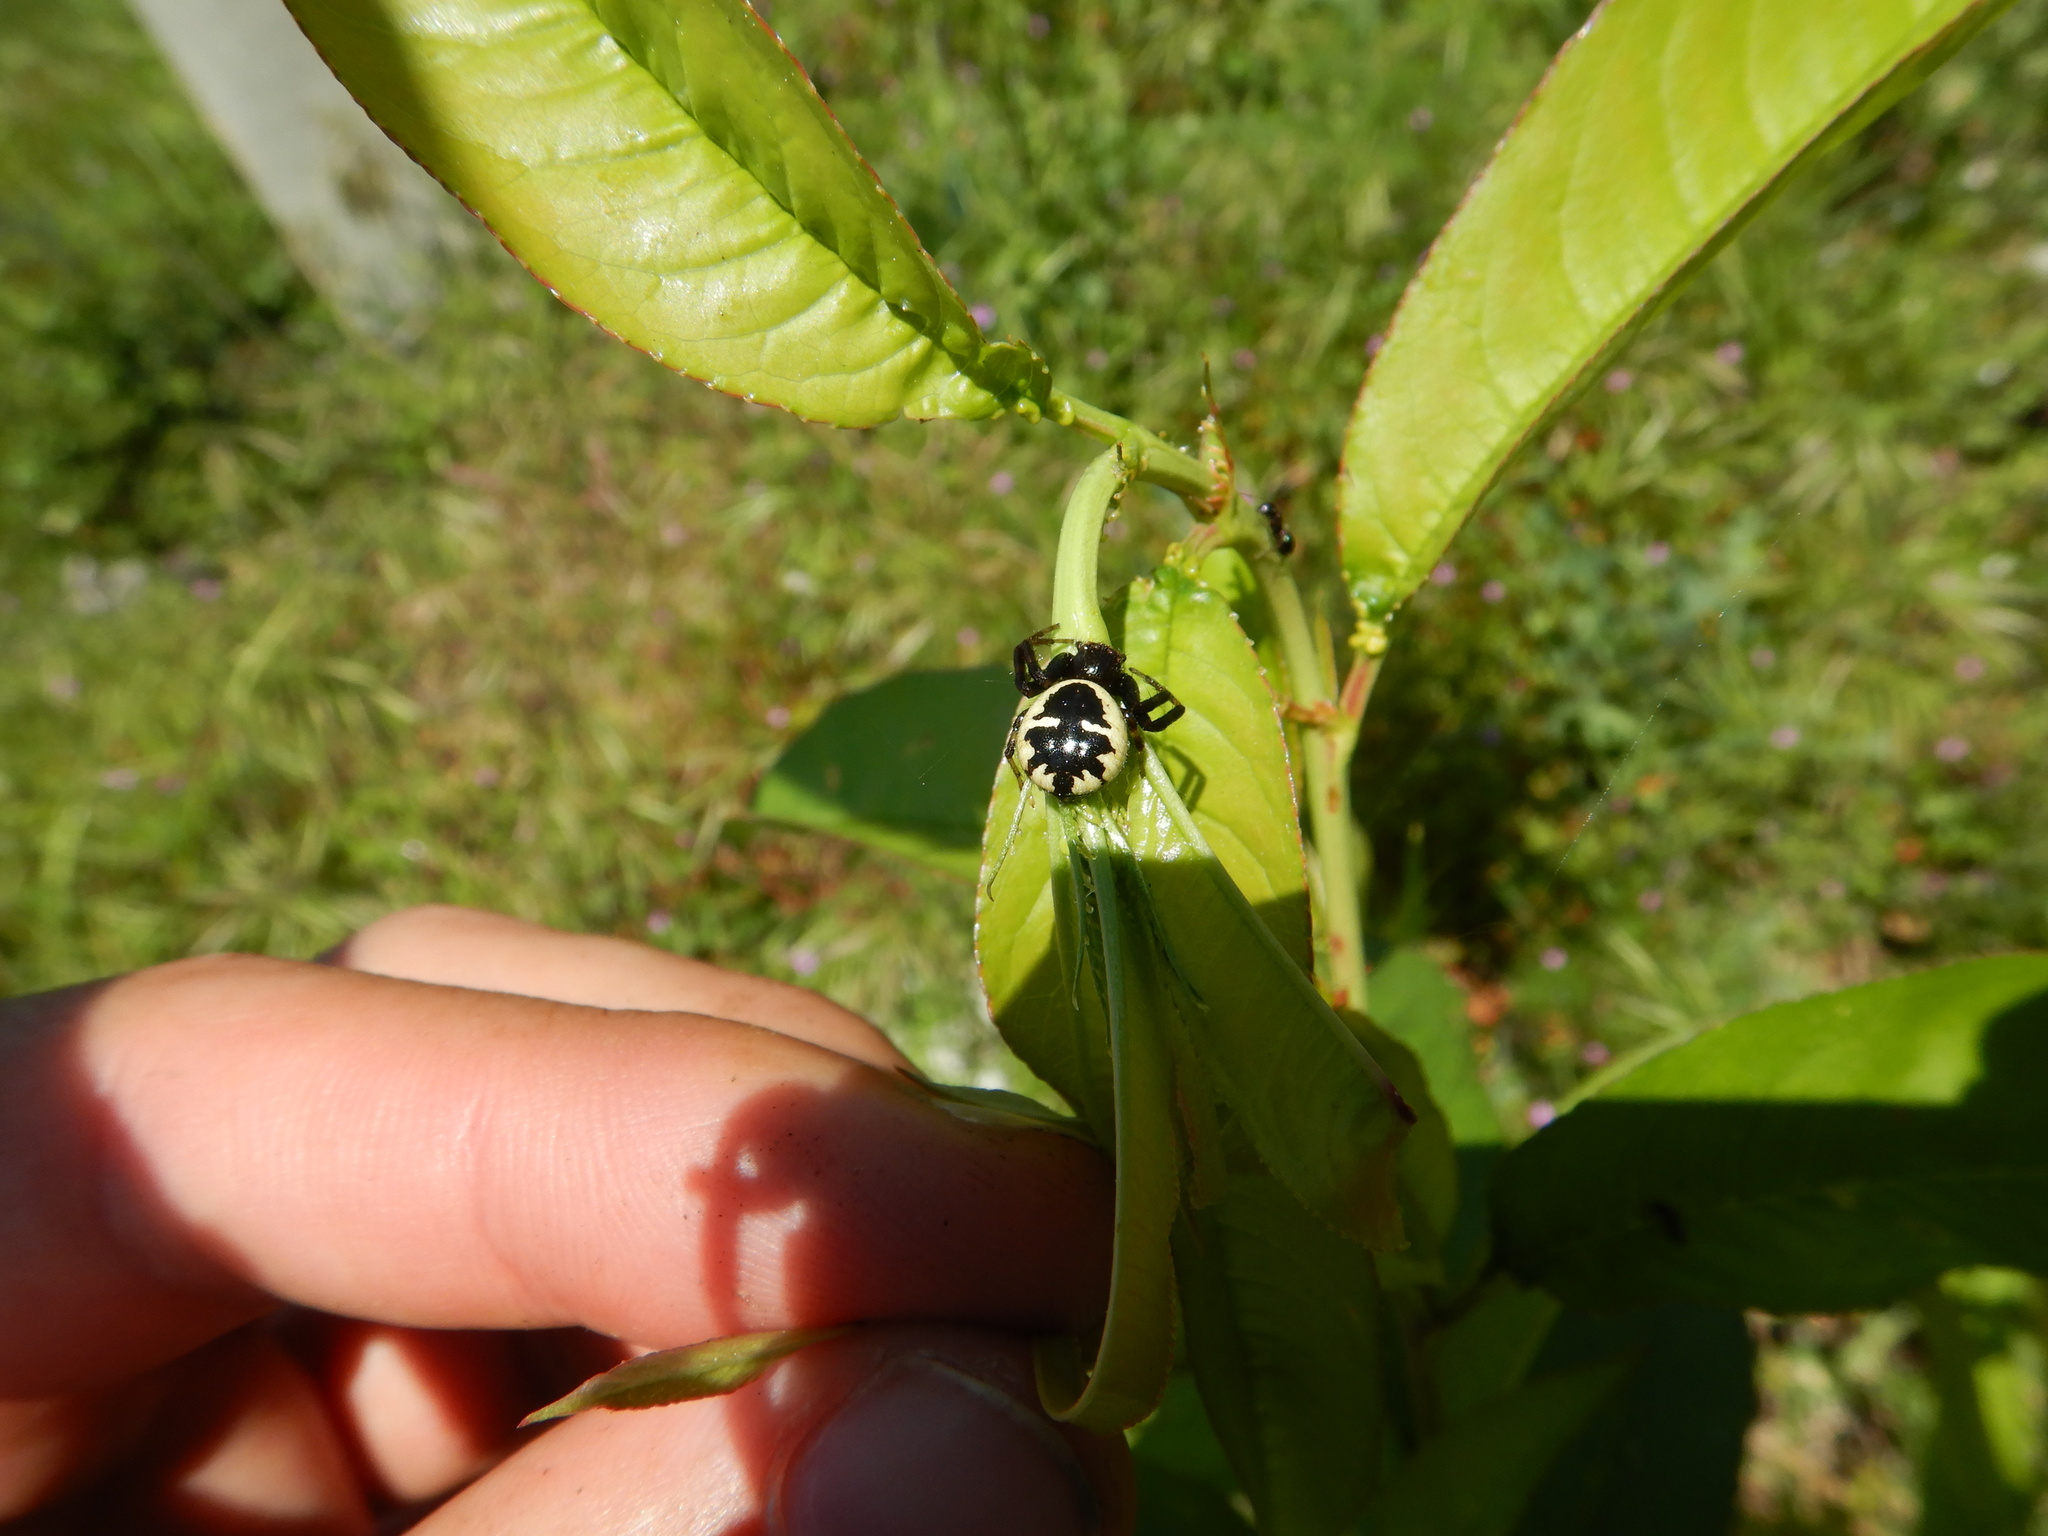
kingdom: Animalia
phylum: Arthropoda
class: Arachnida
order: Araneae
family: Thomisidae
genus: Synema
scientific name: Synema globosum
